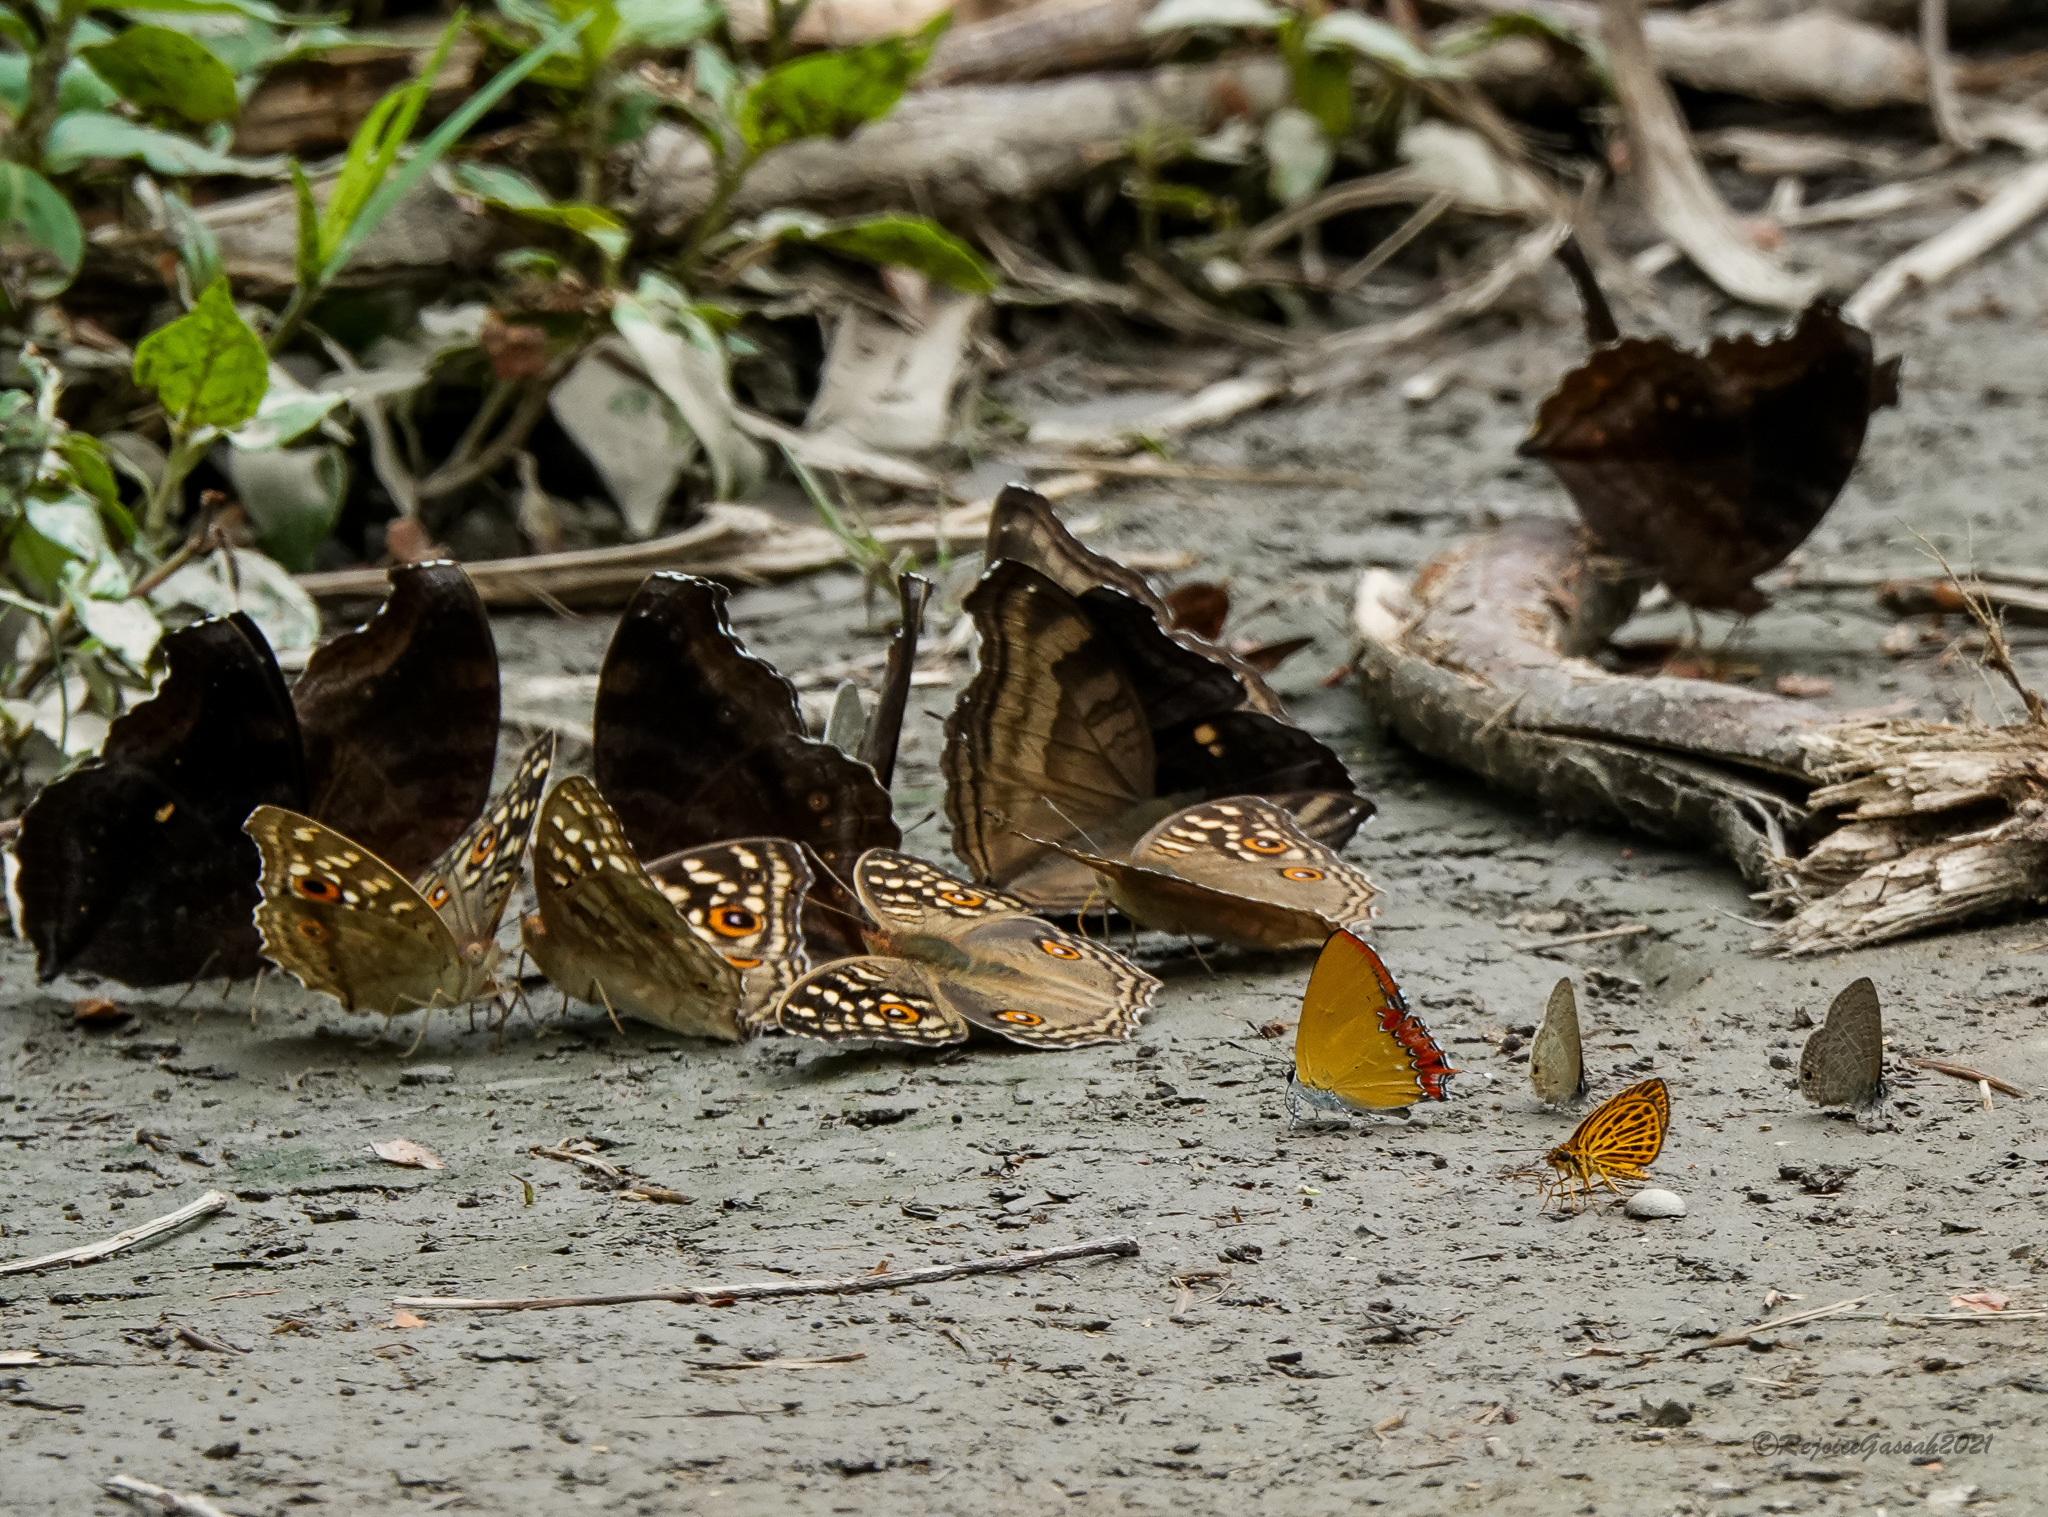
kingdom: Animalia
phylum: Arthropoda
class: Insecta
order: Lepidoptera
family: Nymphalidae
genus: Junonia
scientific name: Junonia lemonias
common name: Lemon pansy
